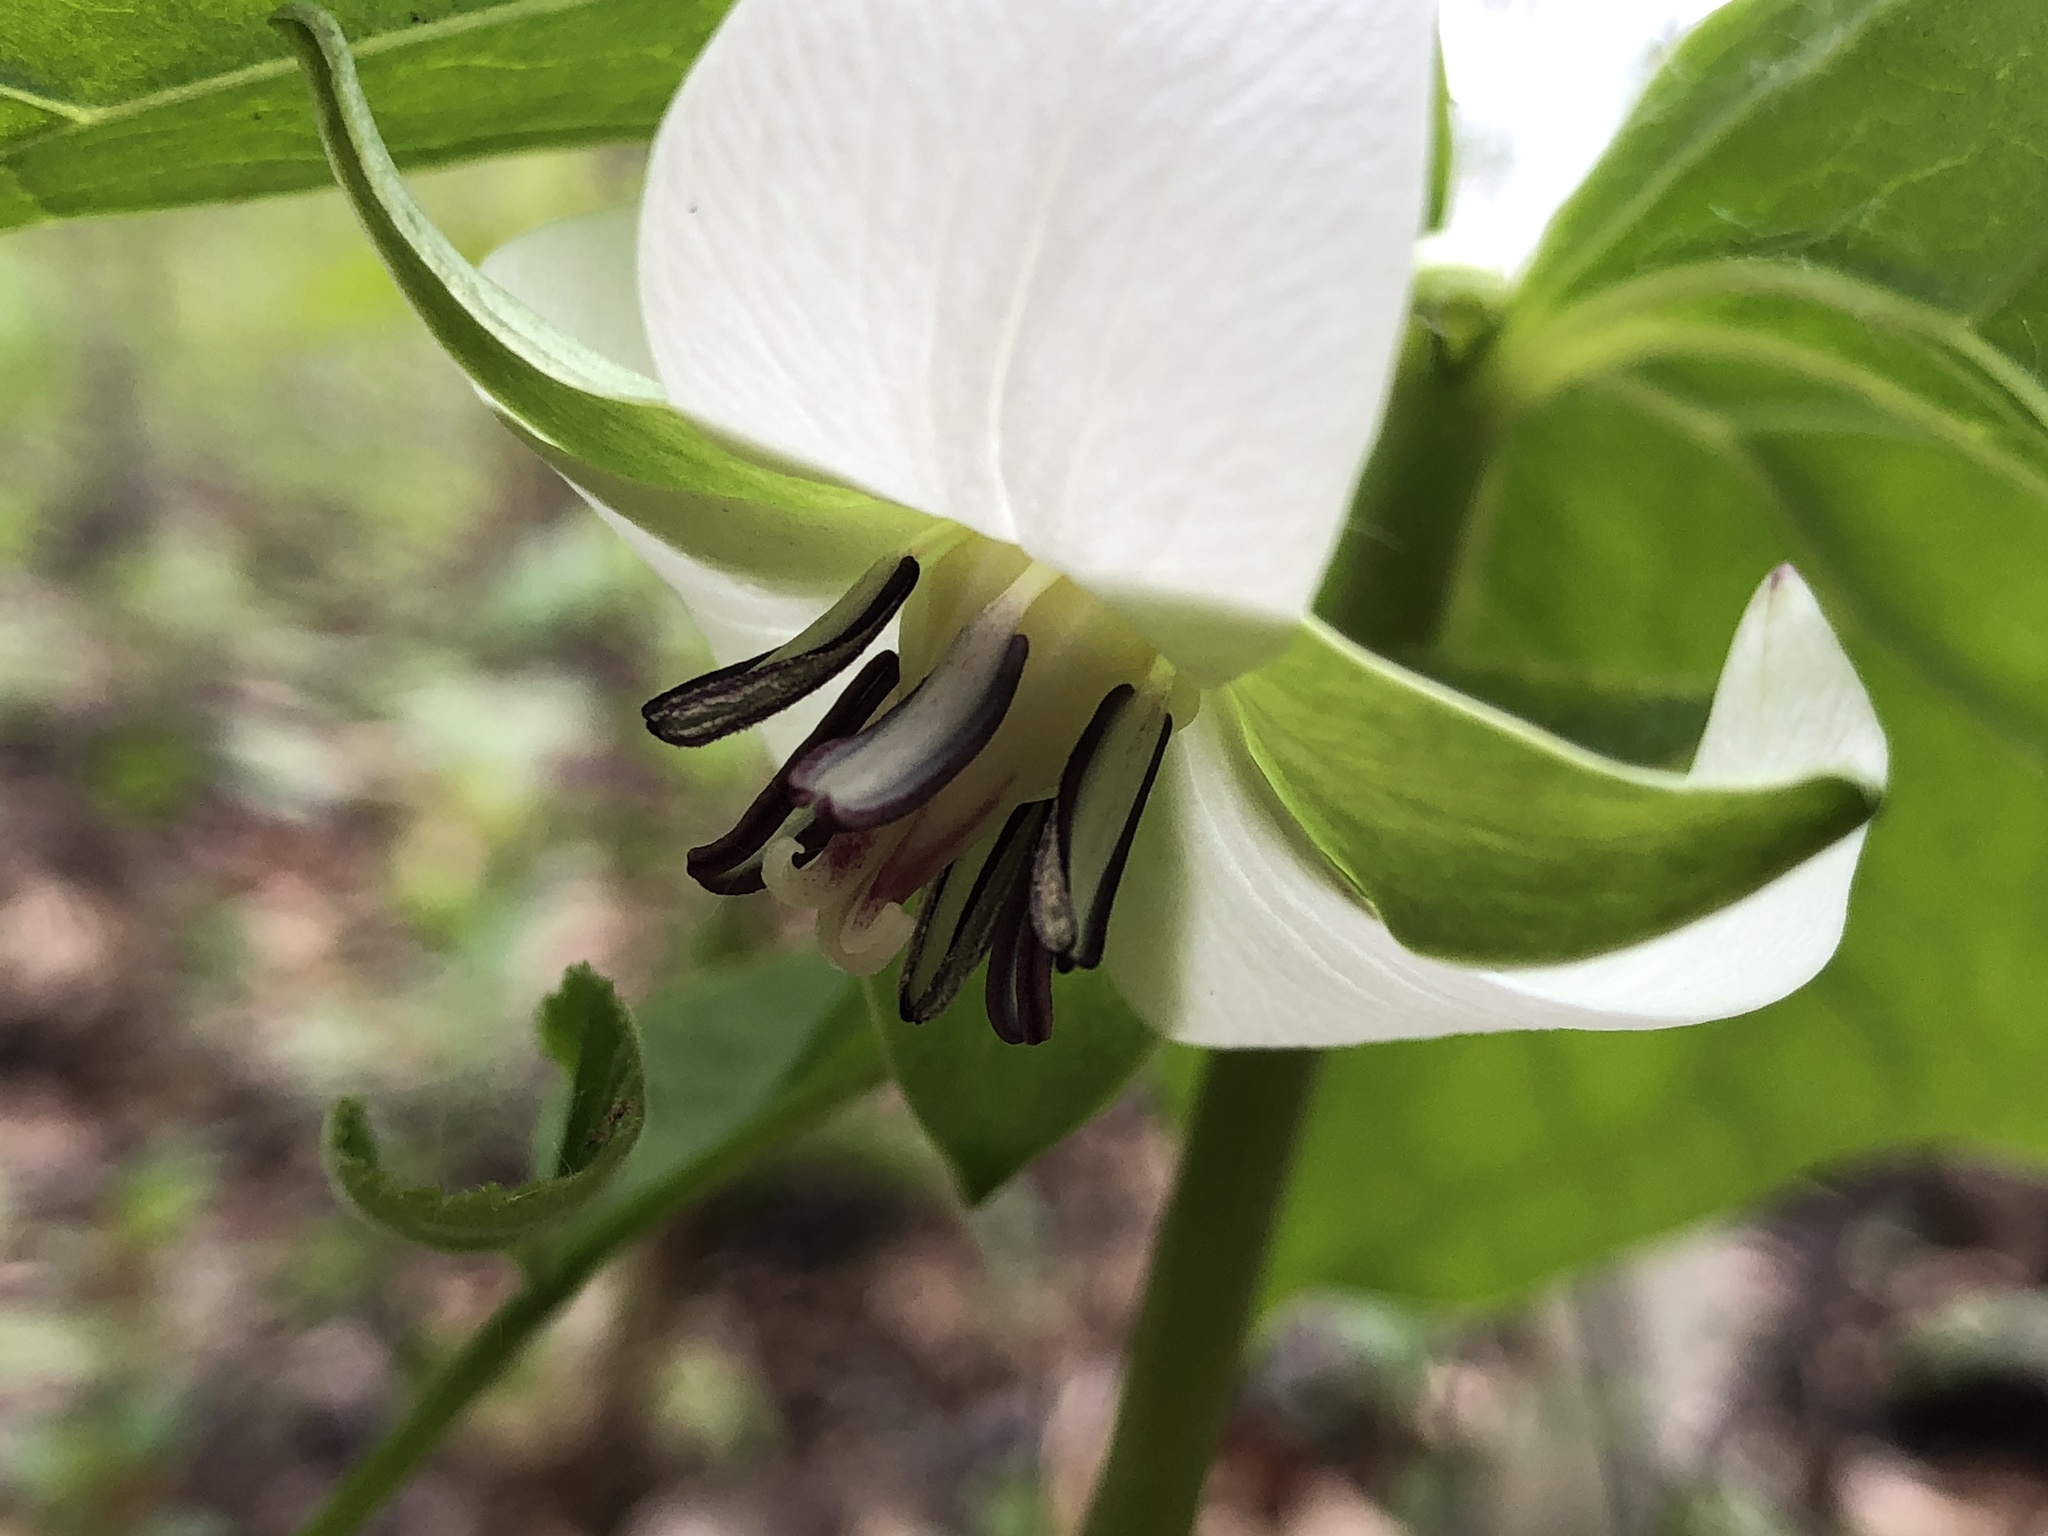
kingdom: Plantae
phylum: Tracheophyta
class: Liliopsida
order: Liliales
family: Melanthiaceae
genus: Trillium
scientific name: Trillium cernuum
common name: Nodding trillium
